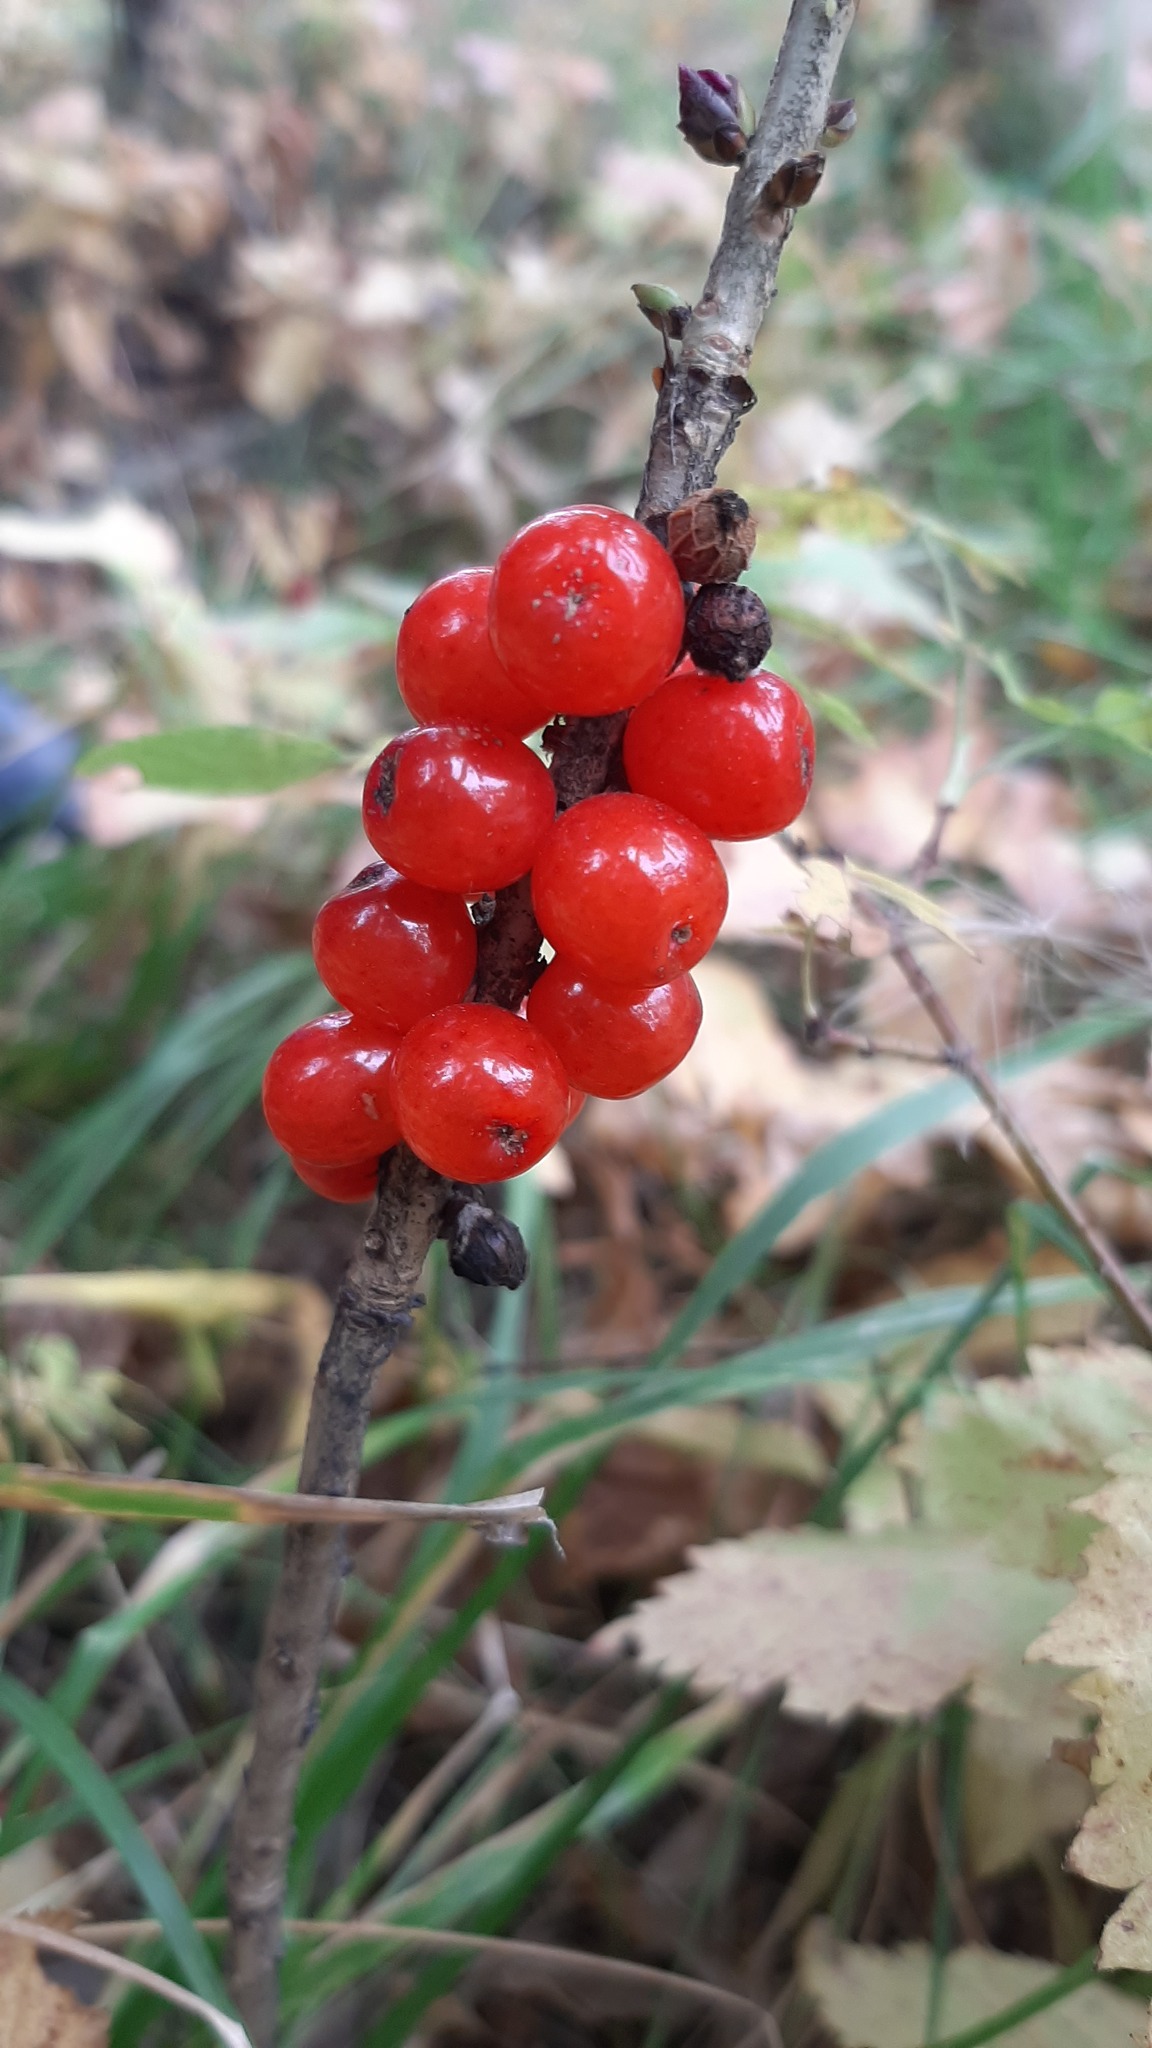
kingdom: Plantae
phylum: Tracheophyta
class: Magnoliopsida
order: Malvales
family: Thymelaeaceae
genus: Daphne
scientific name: Daphne mezereum
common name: Mezereon
